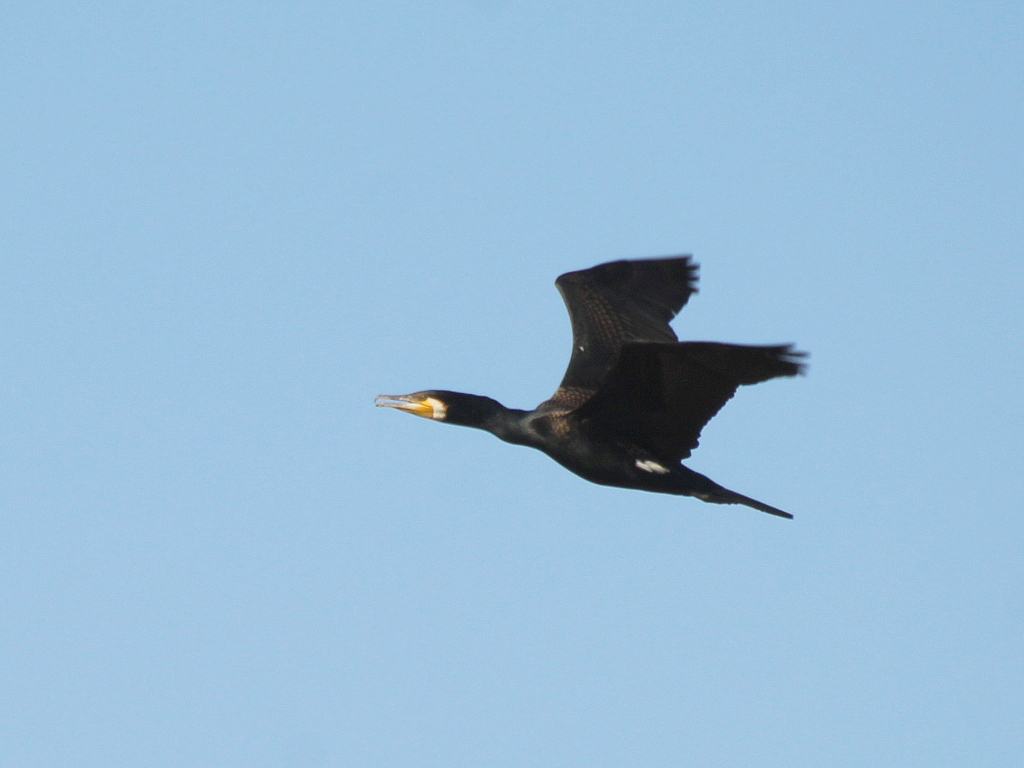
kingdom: Animalia
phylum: Chordata
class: Aves
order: Suliformes
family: Phalacrocoracidae
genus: Phalacrocorax
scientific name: Phalacrocorax carbo
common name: Great cormorant
